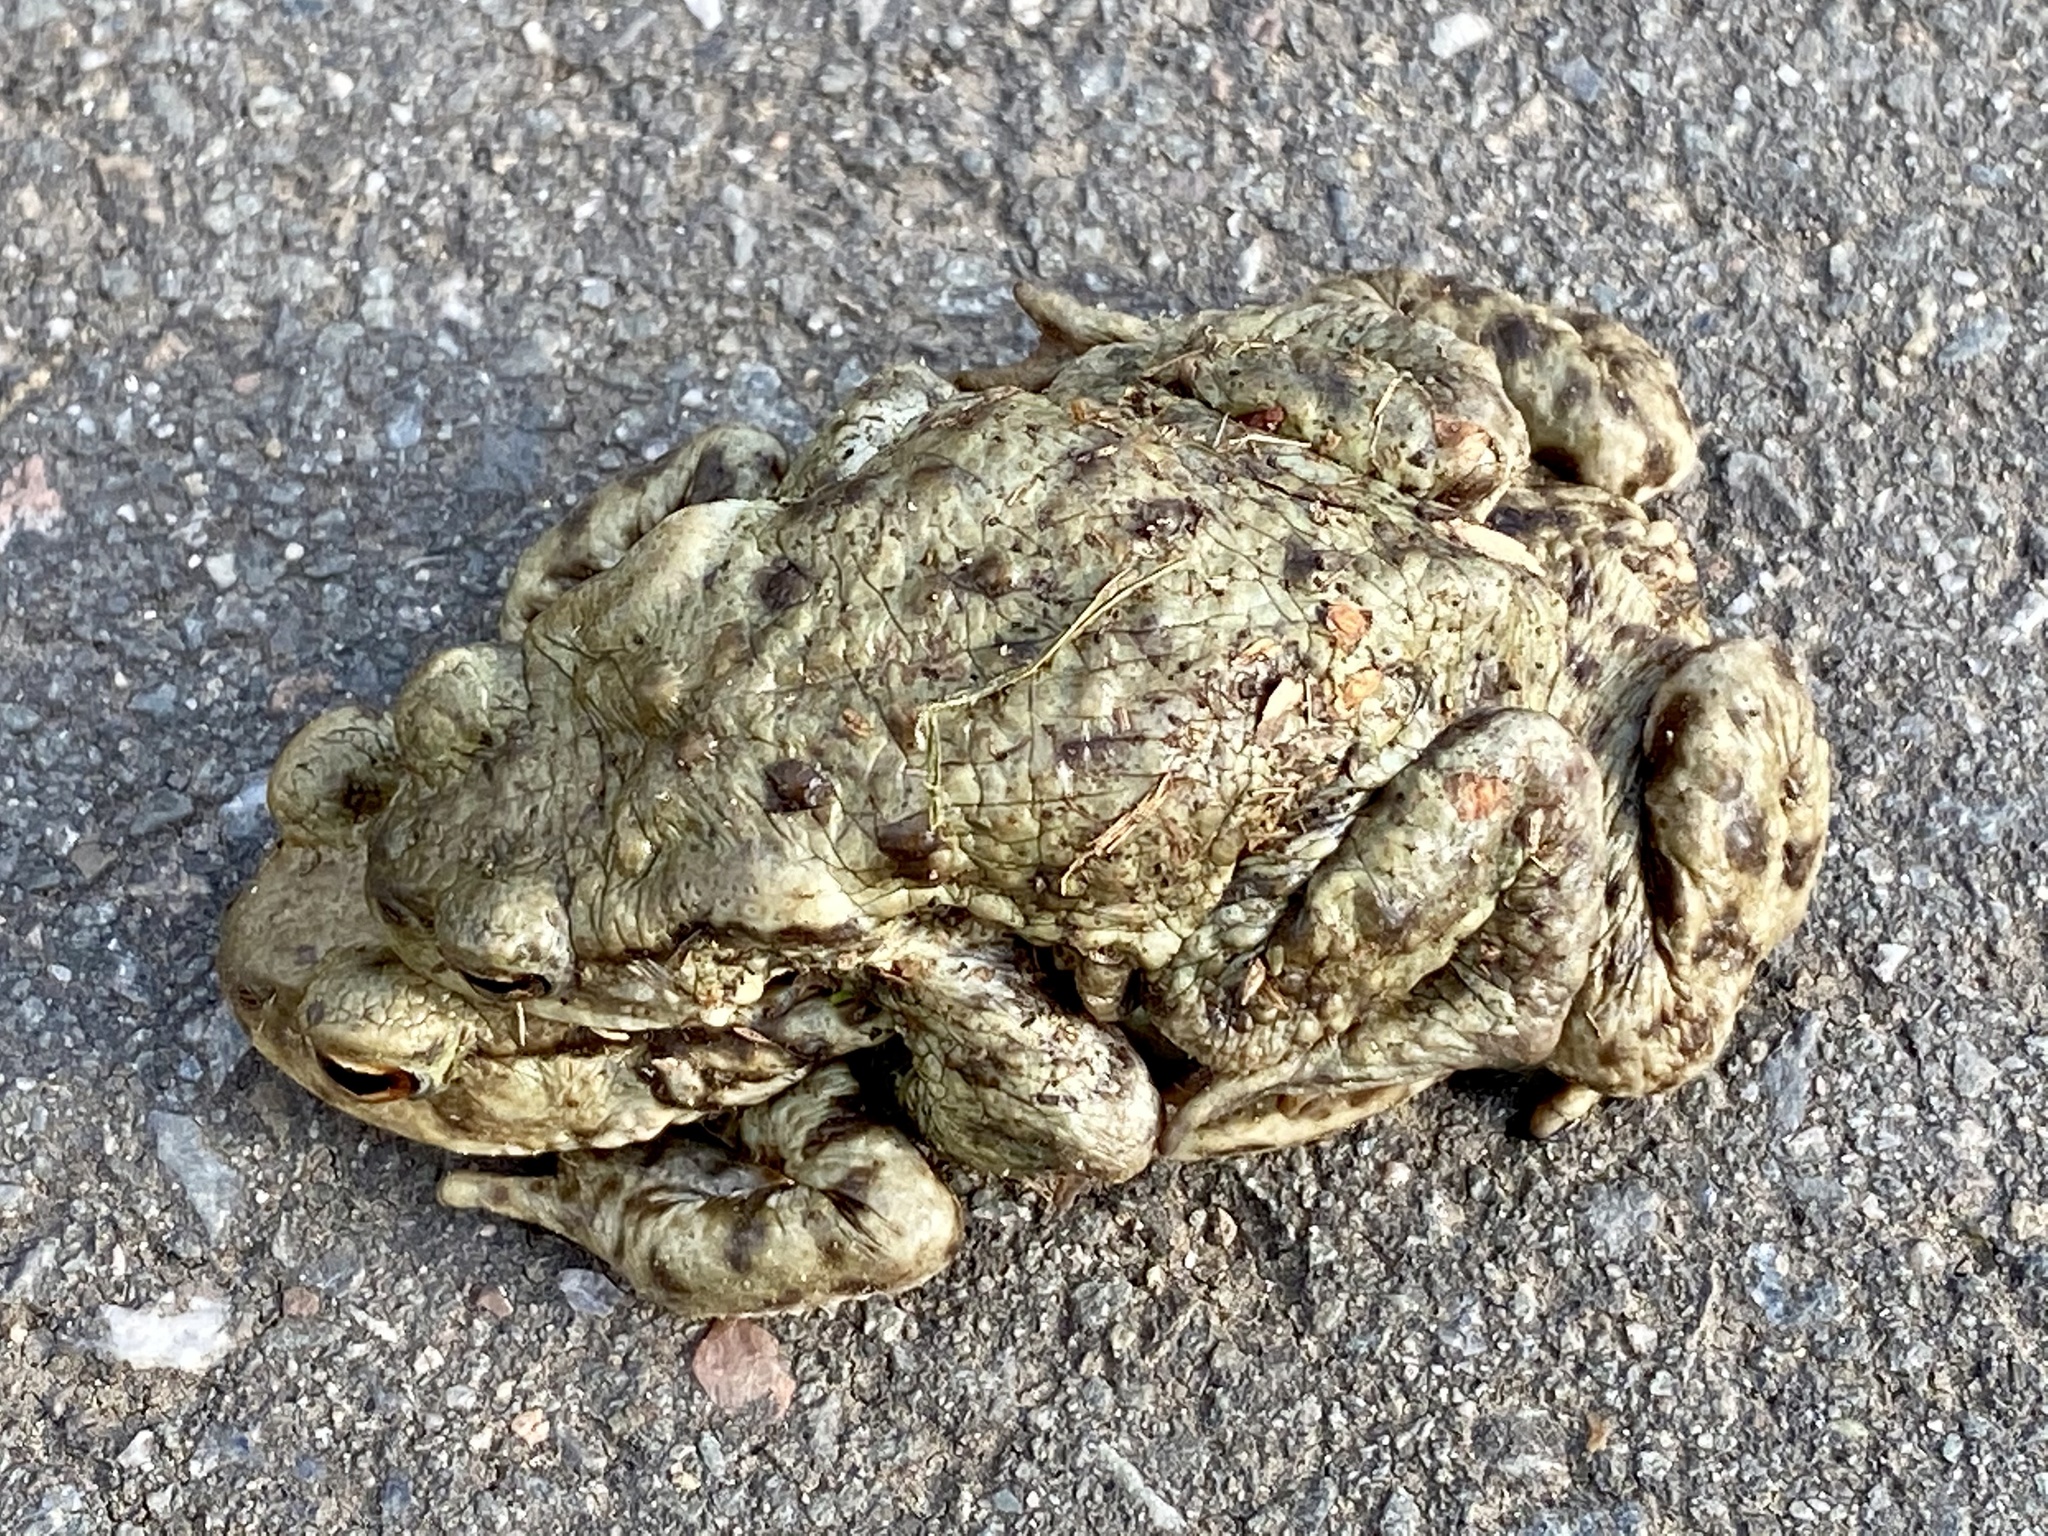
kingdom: Animalia
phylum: Chordata
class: Amphibia
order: Anura
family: Bufonidae
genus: Bufo
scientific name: Bufo bufo
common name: Common toad
